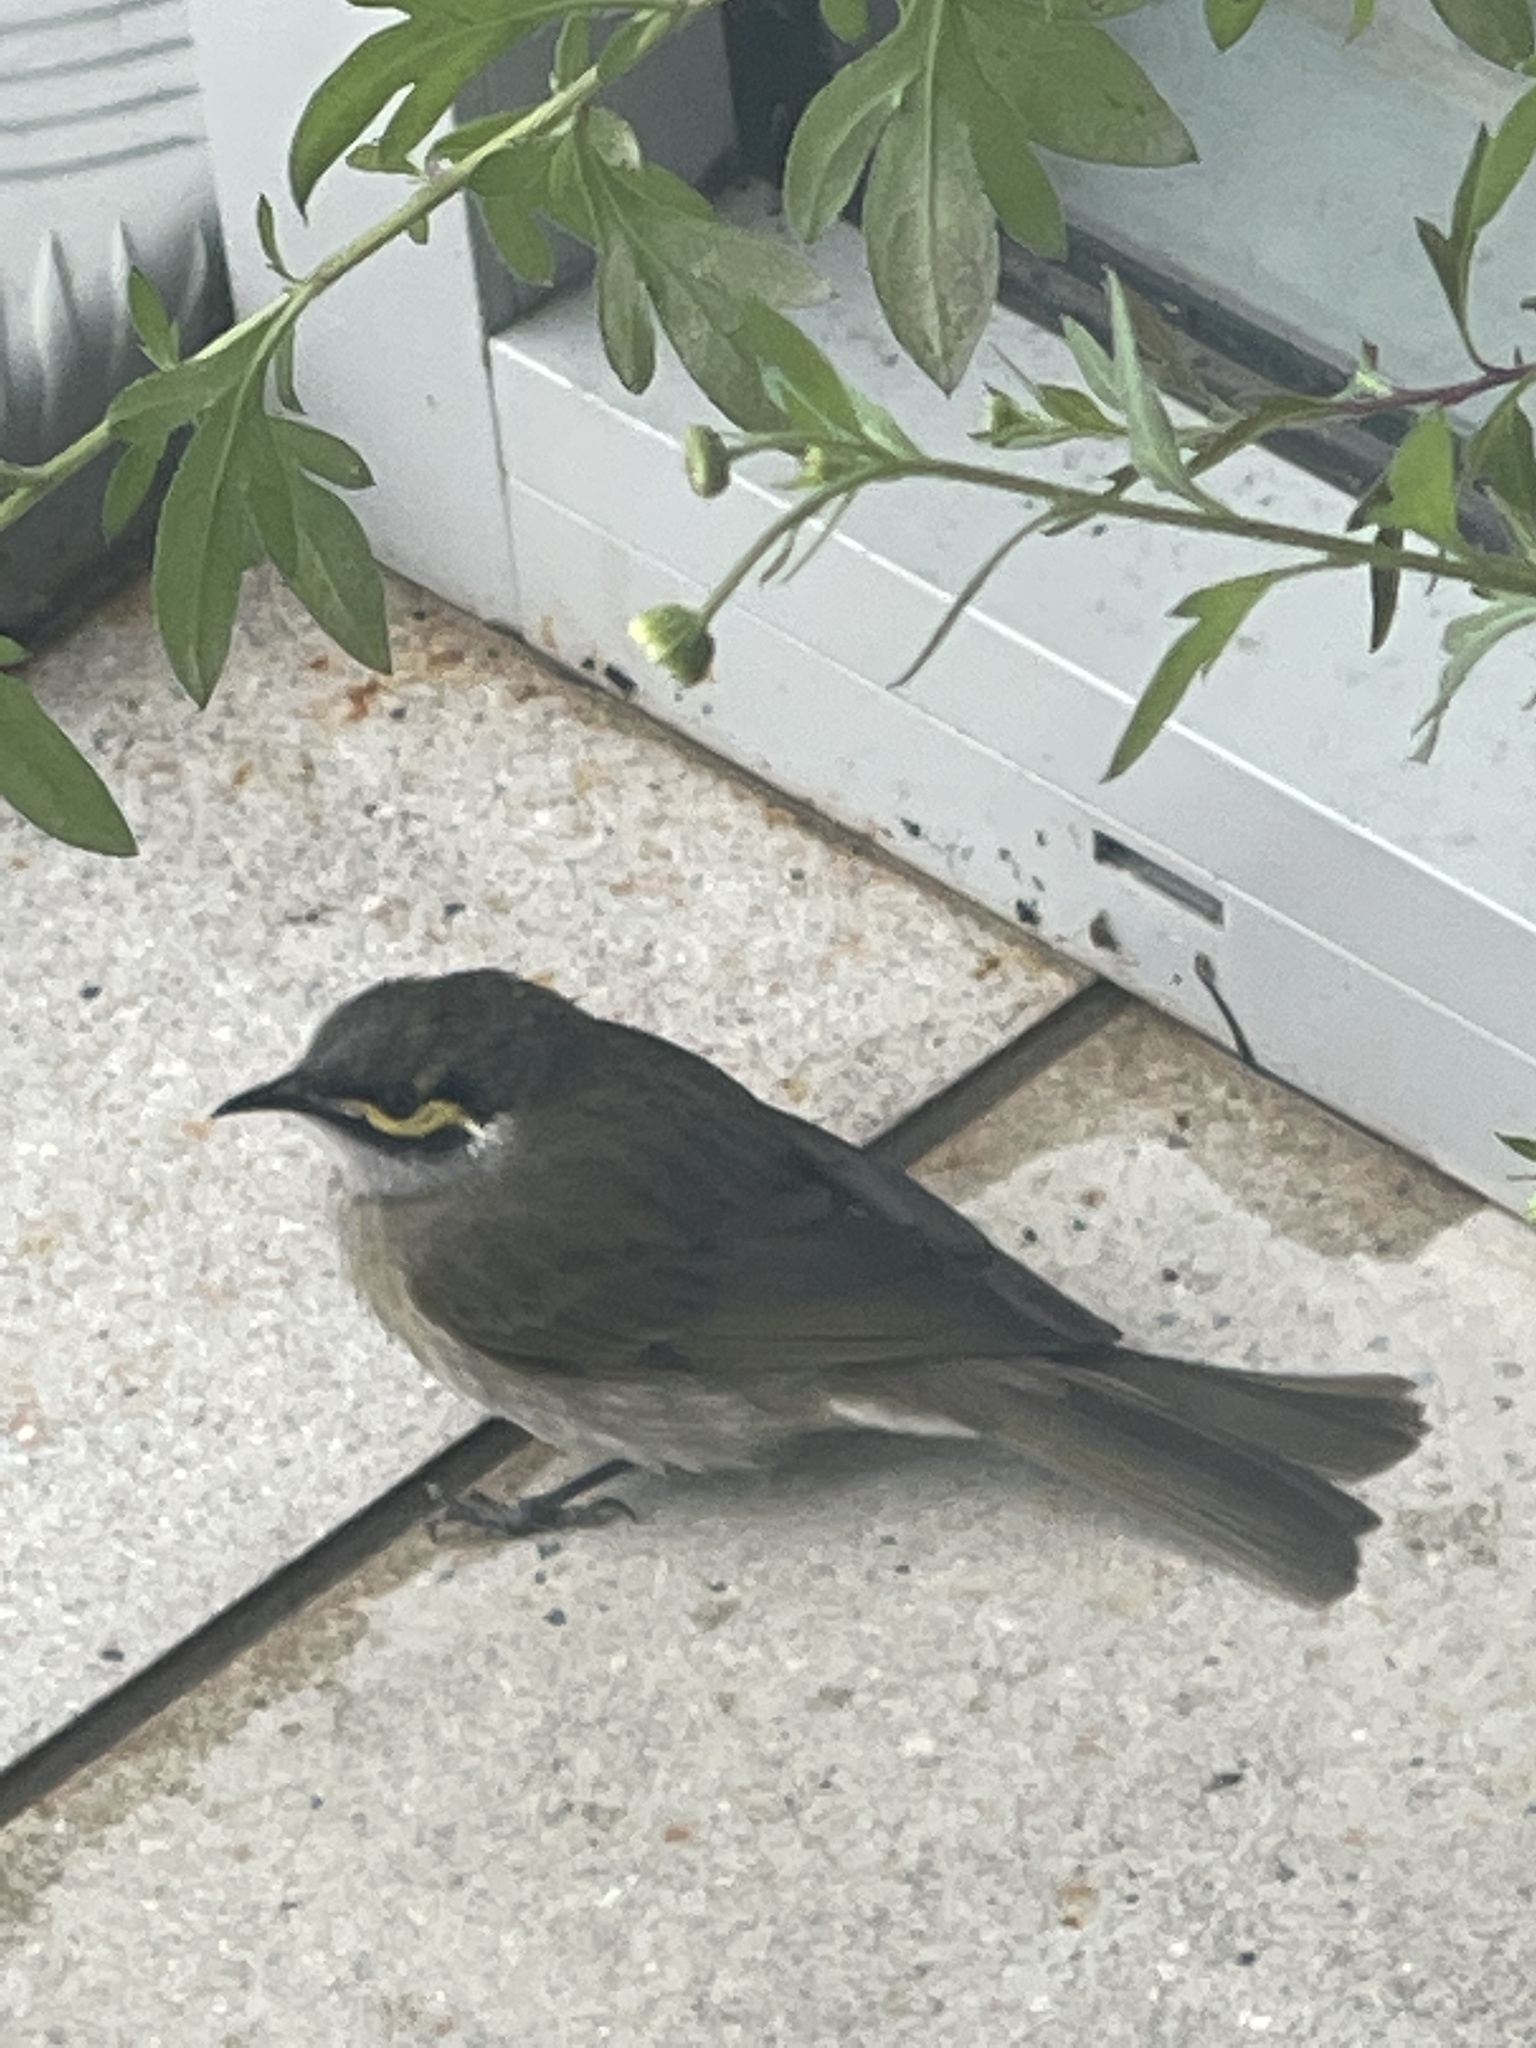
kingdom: Animalia
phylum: Chordata
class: Aves
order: Passeriformes
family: Meliphagidae
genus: Caligavis
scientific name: Caligavis chrysops
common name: Yellow-faced honeyeater
